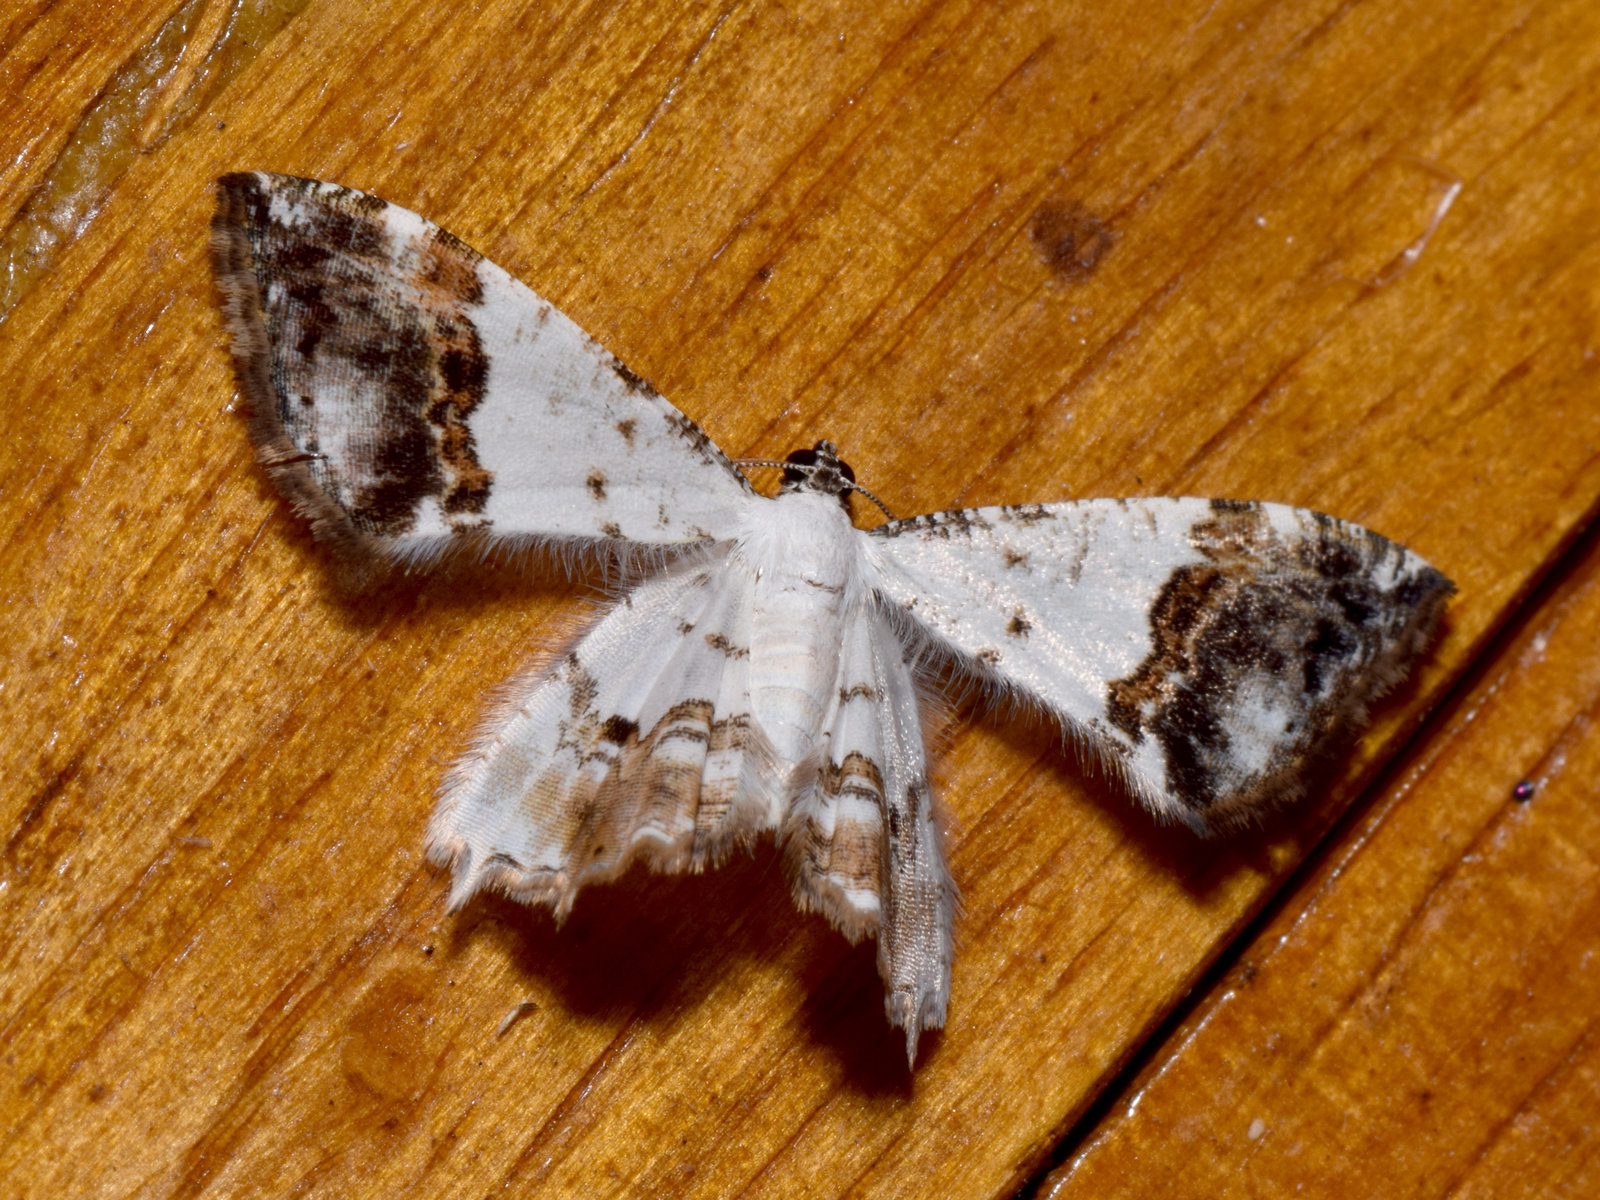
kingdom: Animalia
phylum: Arthropoda
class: Insecta
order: Lepidoptera
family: Uraniidae
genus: Epiplema
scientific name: Epiplema
